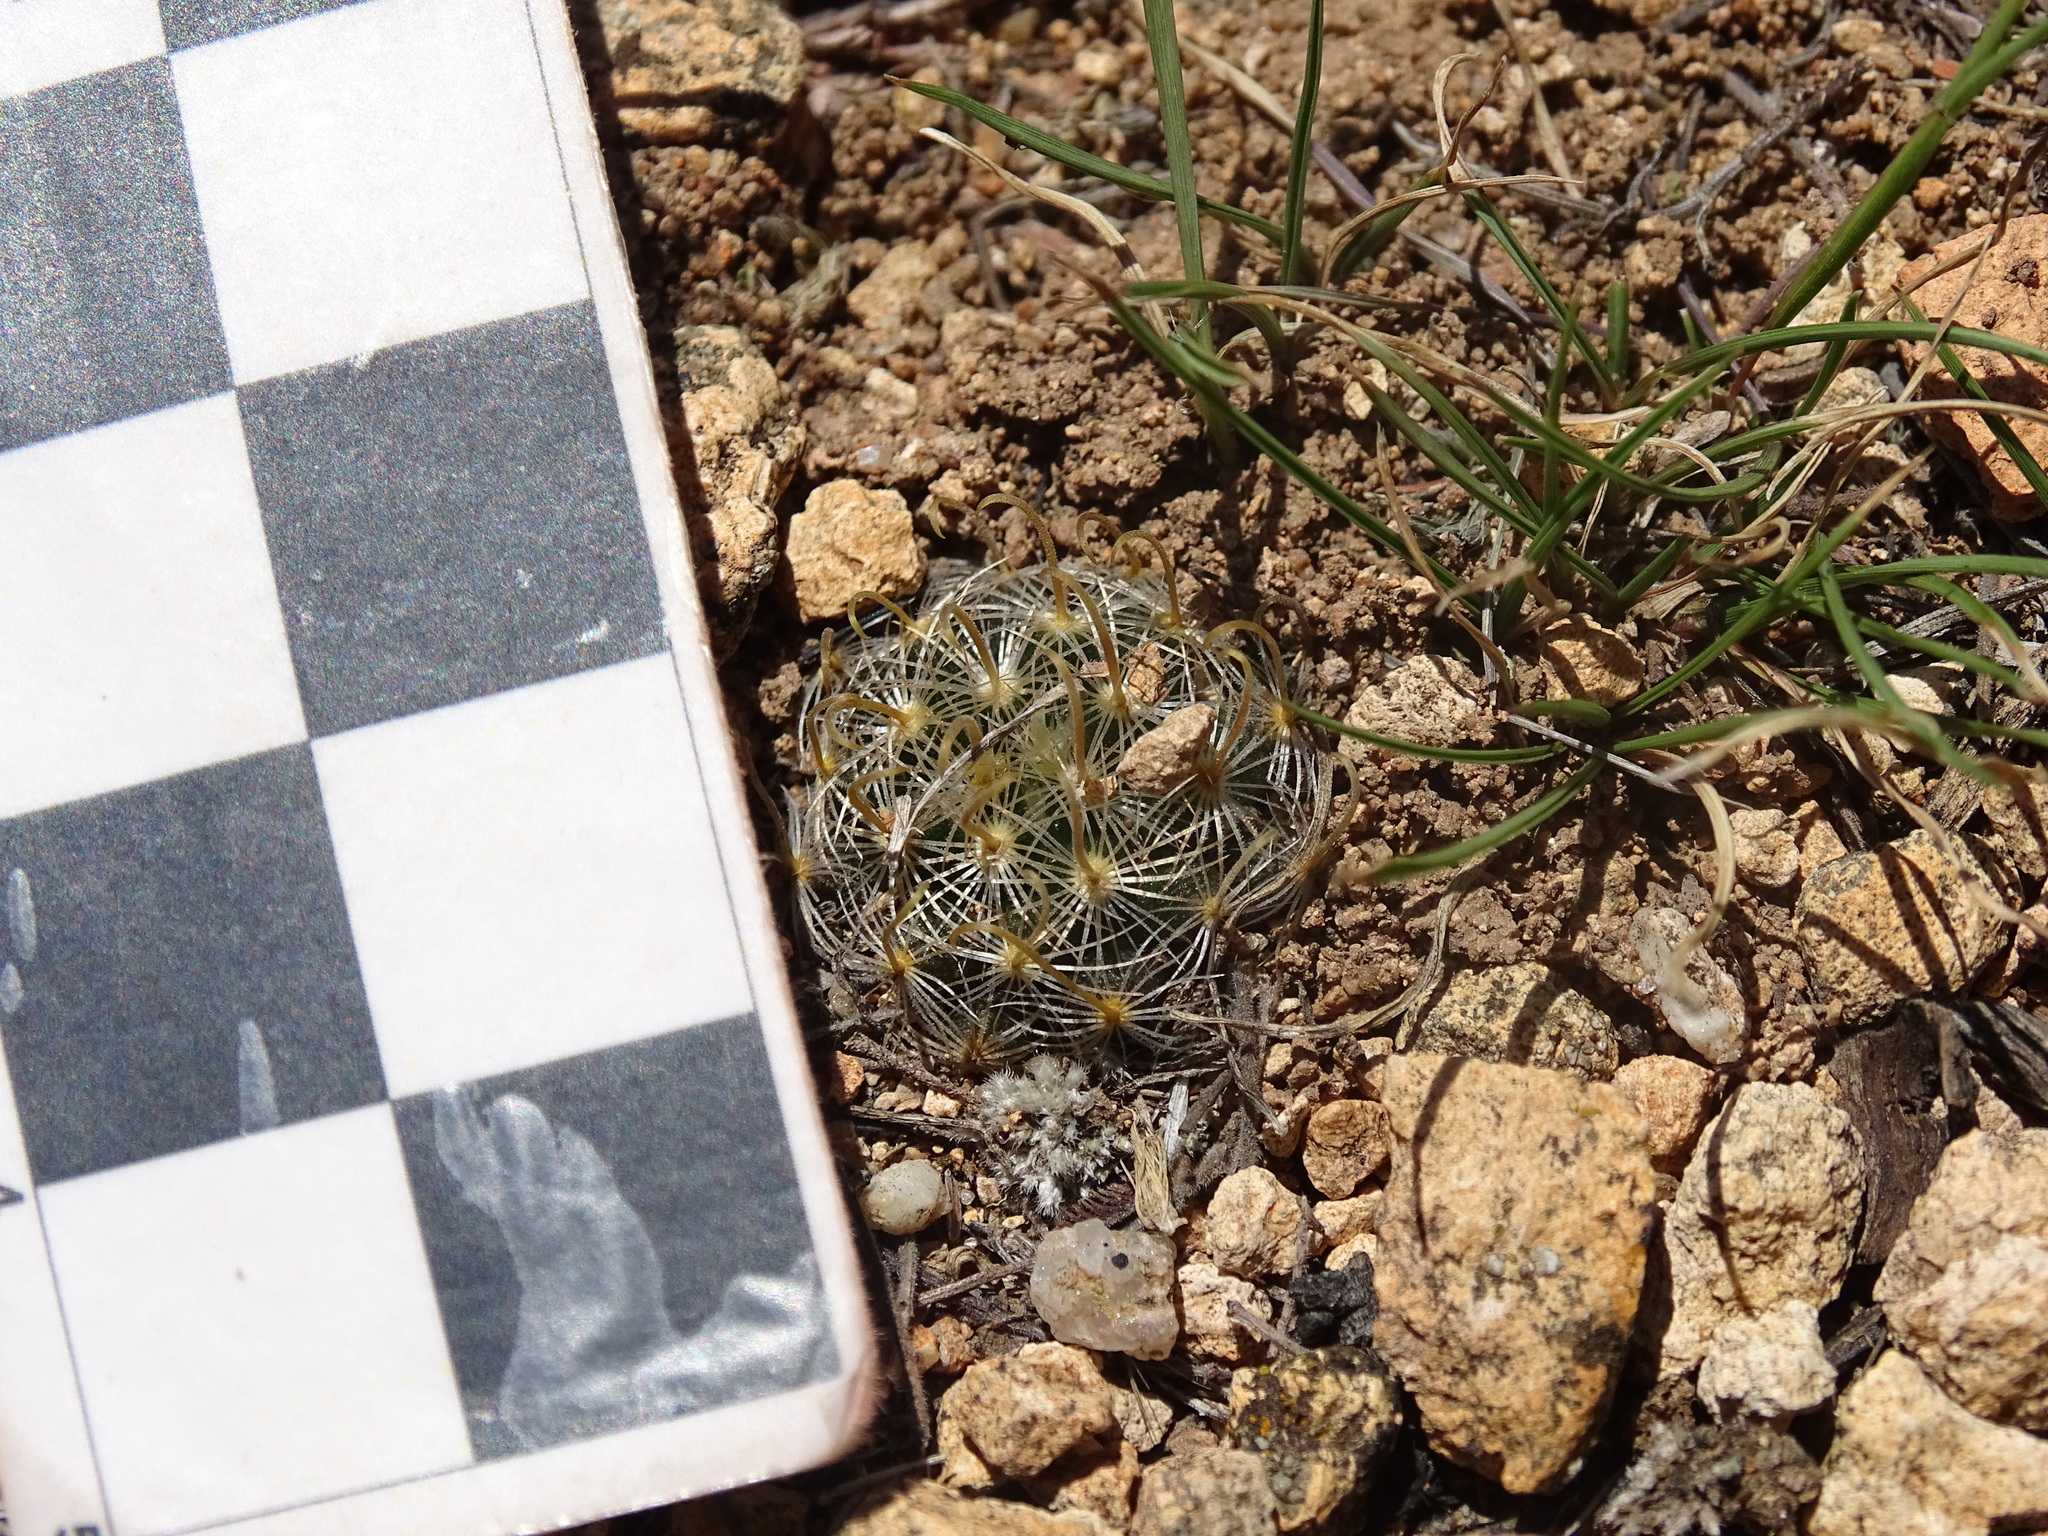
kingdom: Plantae
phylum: Tracheophyta
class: Magnoliopsida
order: Caryophyllales
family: Cactaceae
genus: Mammillaria
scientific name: Mammillaria jaliscana
